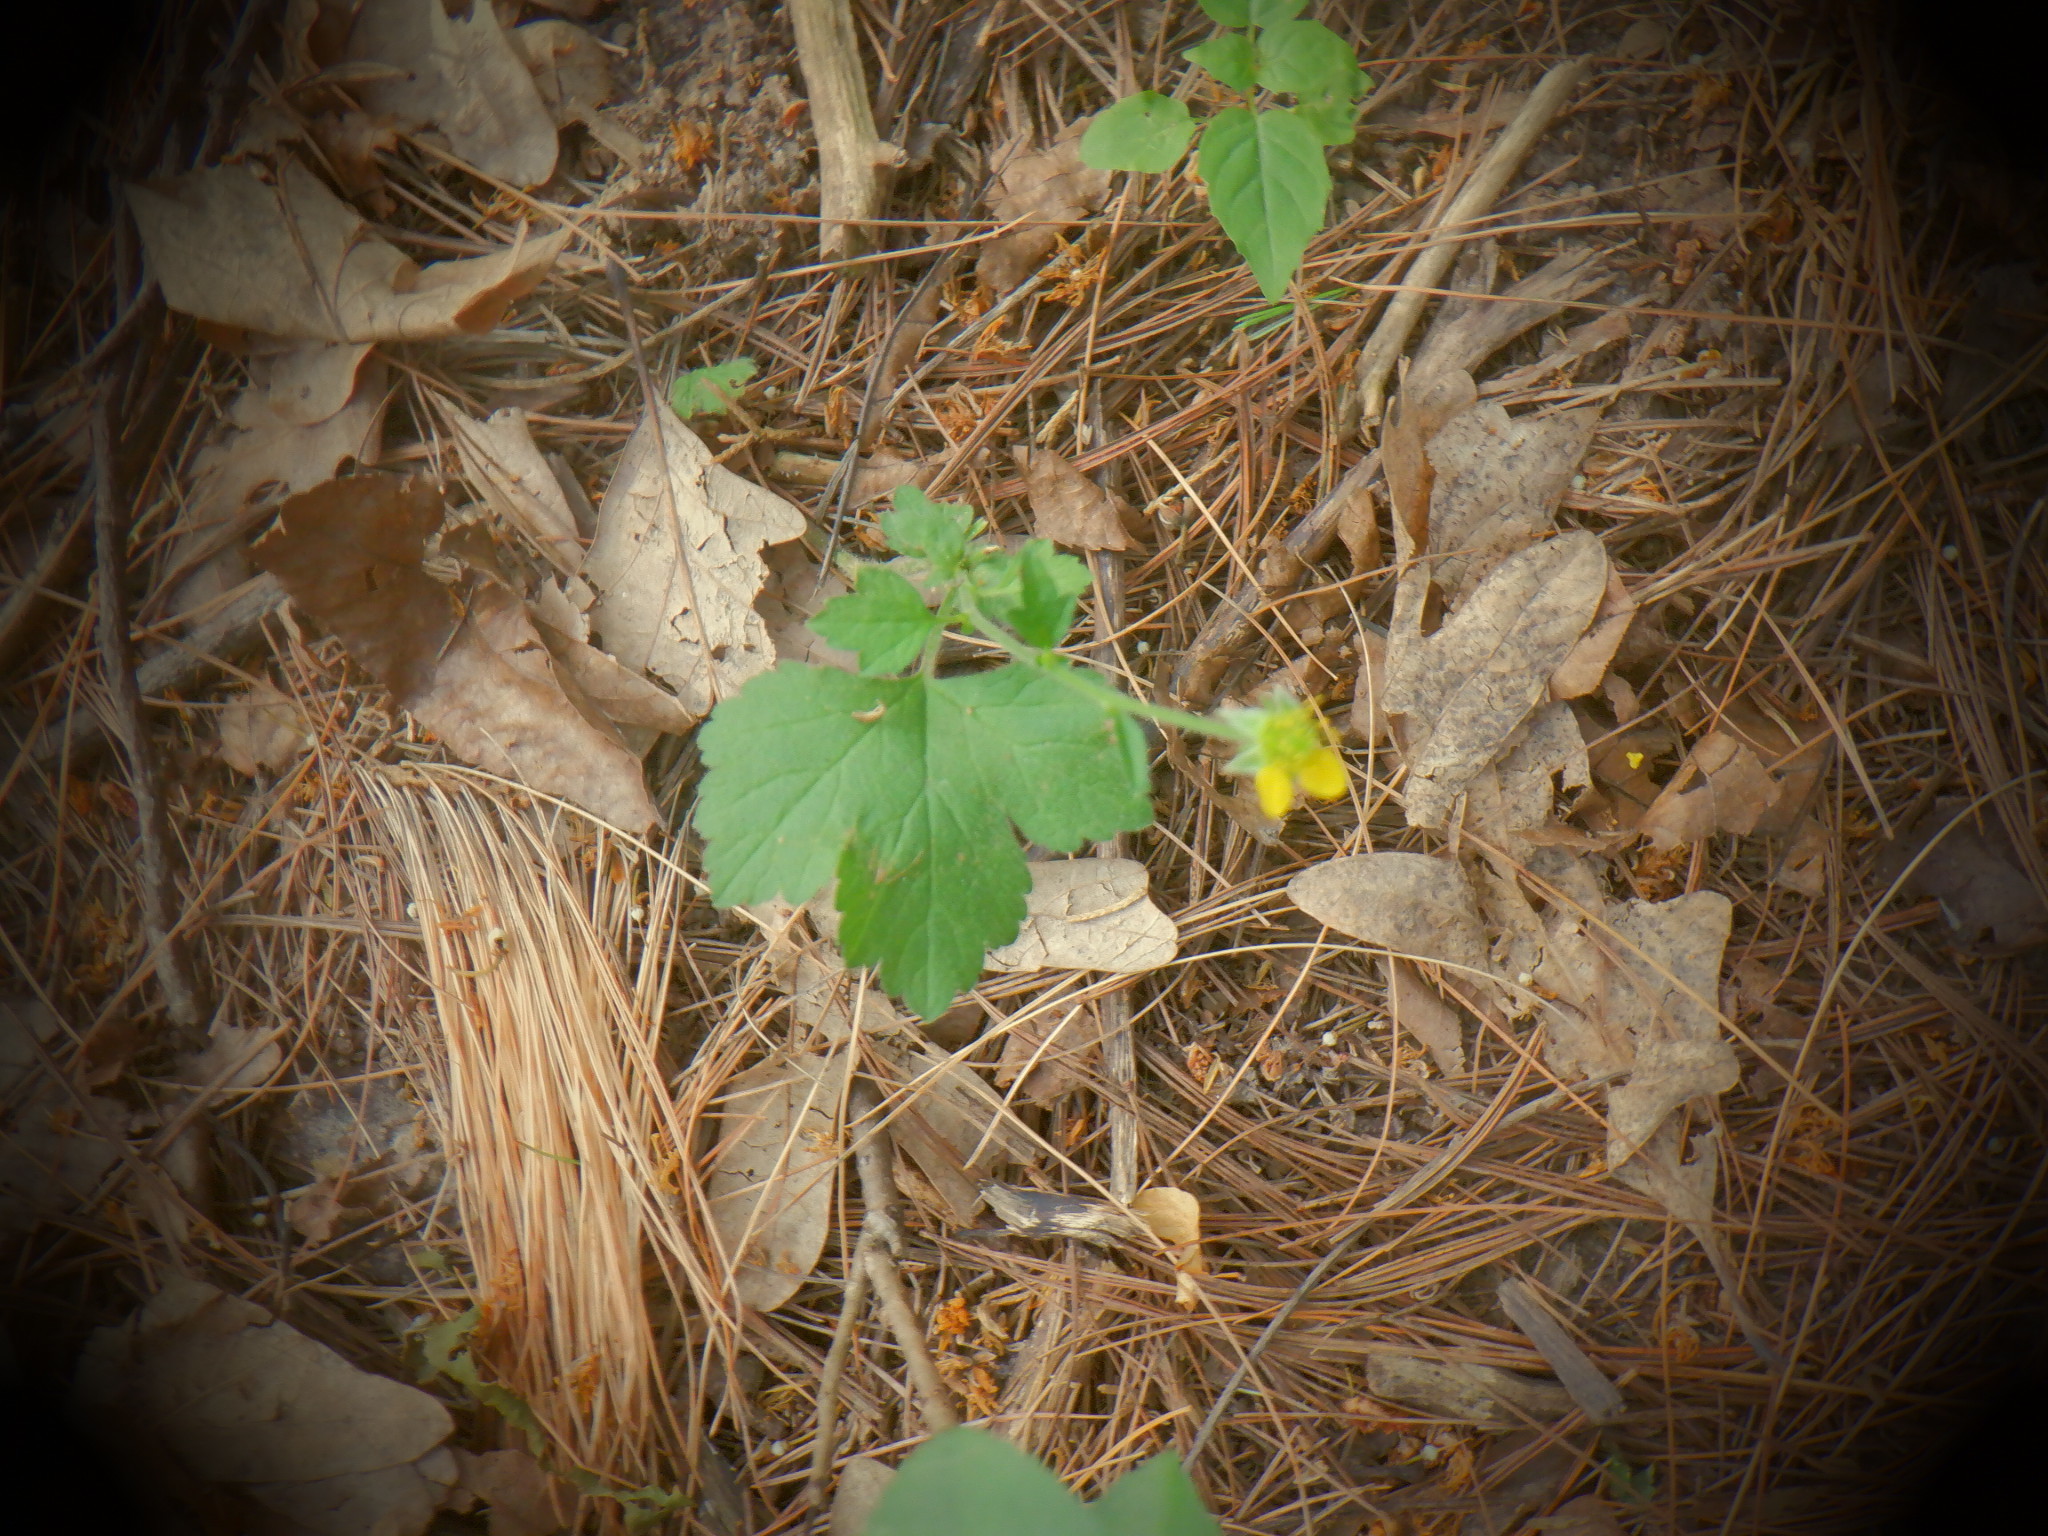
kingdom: Plantae
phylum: Tracheophyta
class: Magnoliopsida
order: Rosales
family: Rosaceae
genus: Geum
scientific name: Geum urbanum
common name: Wood avens
